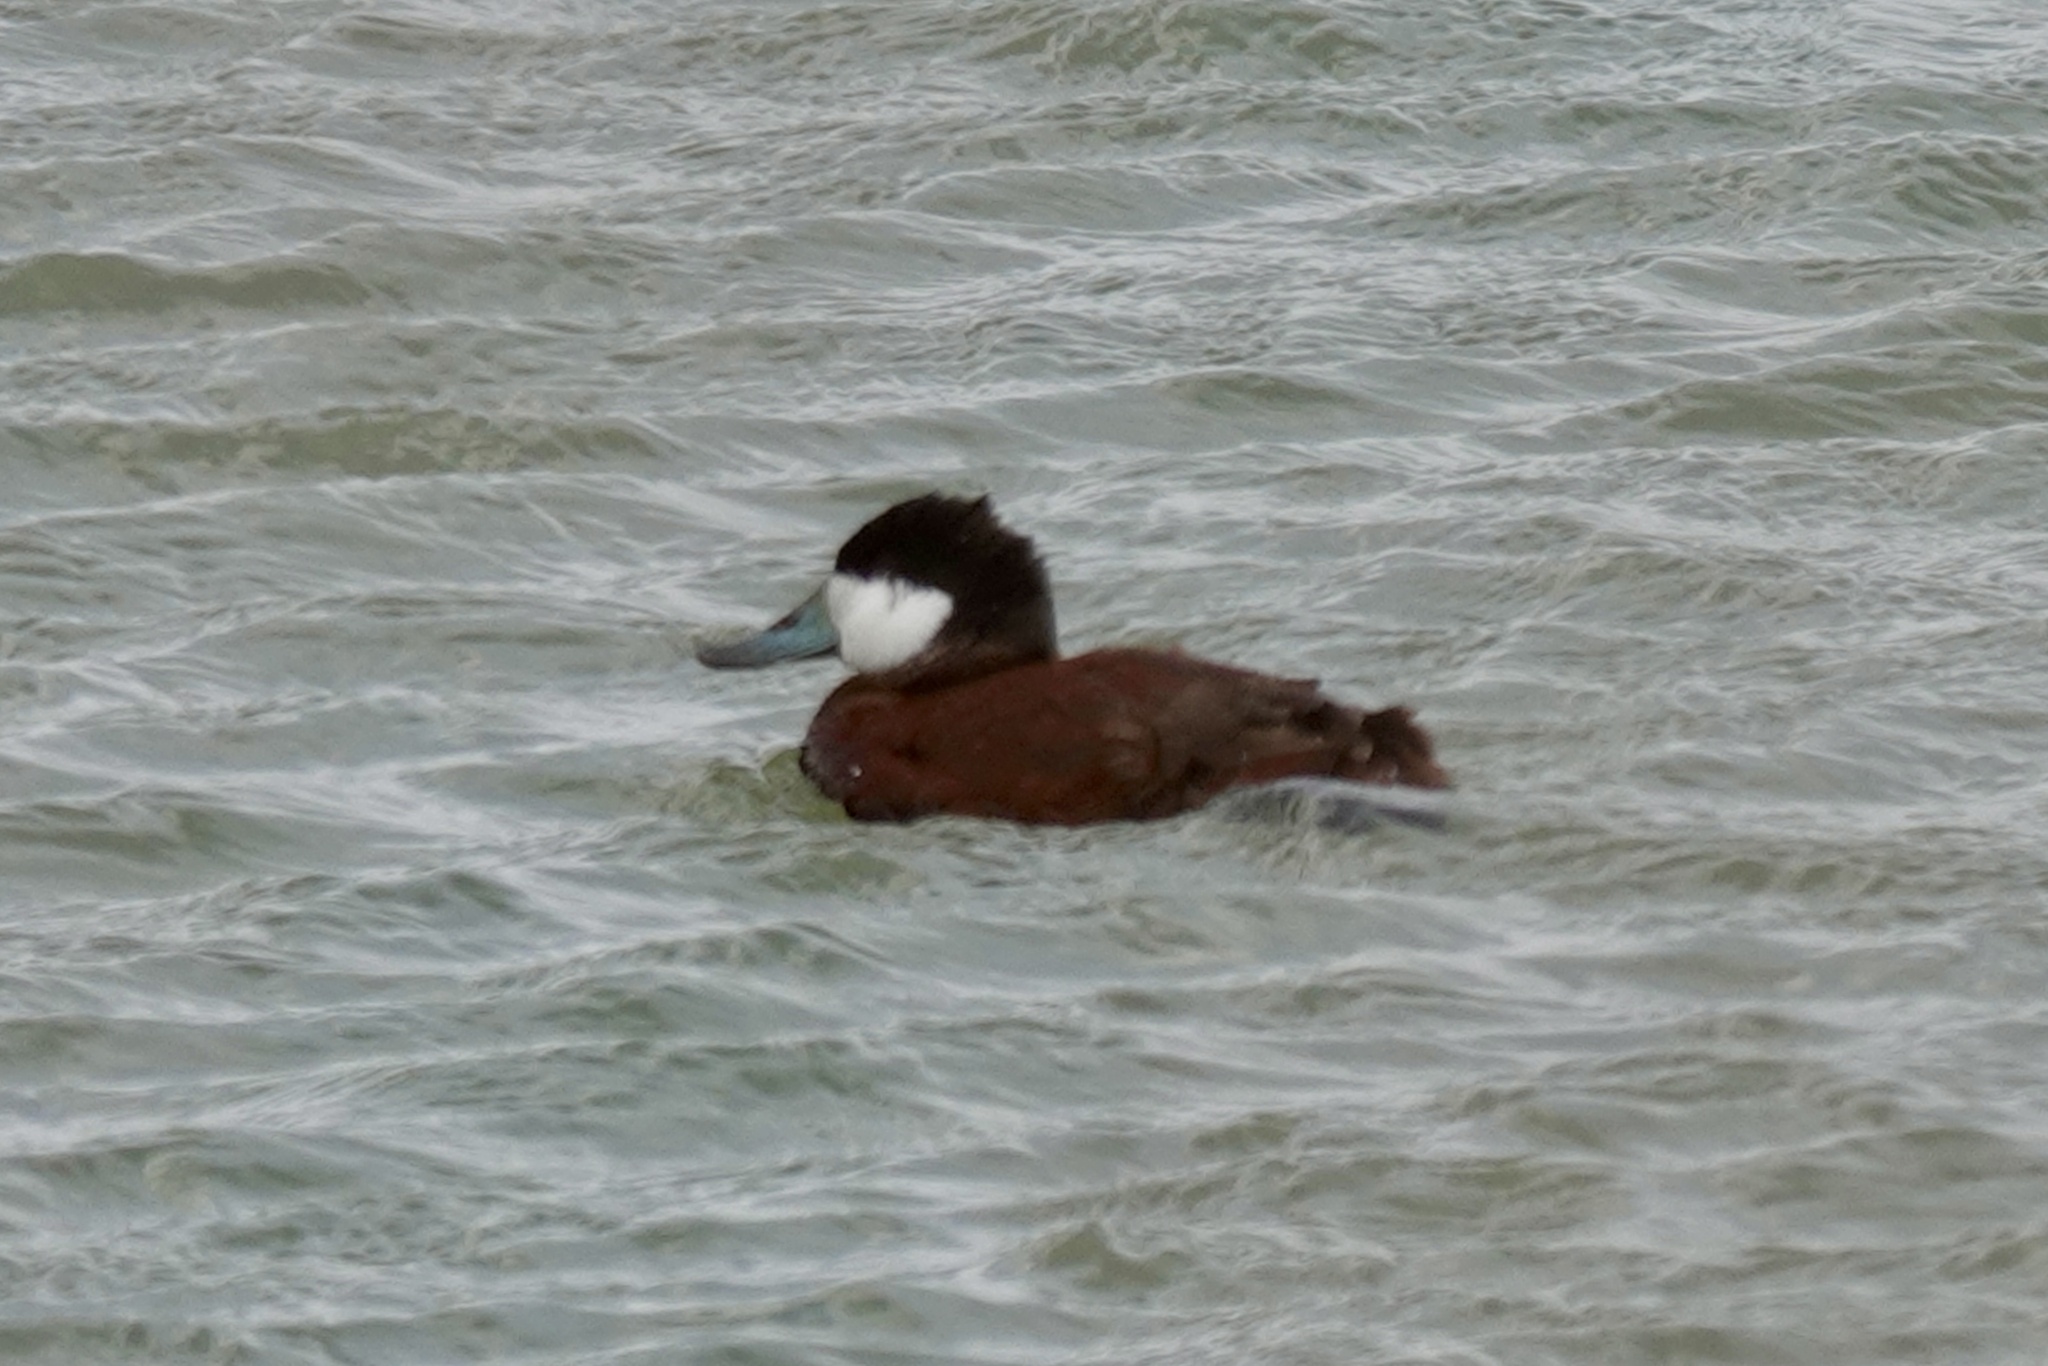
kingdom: Animalia
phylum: Chordata
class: Aves
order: Anseriformes
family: Anatidae
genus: Oxyura
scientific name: Oxyura jamaicensis
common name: Ruddy duck
